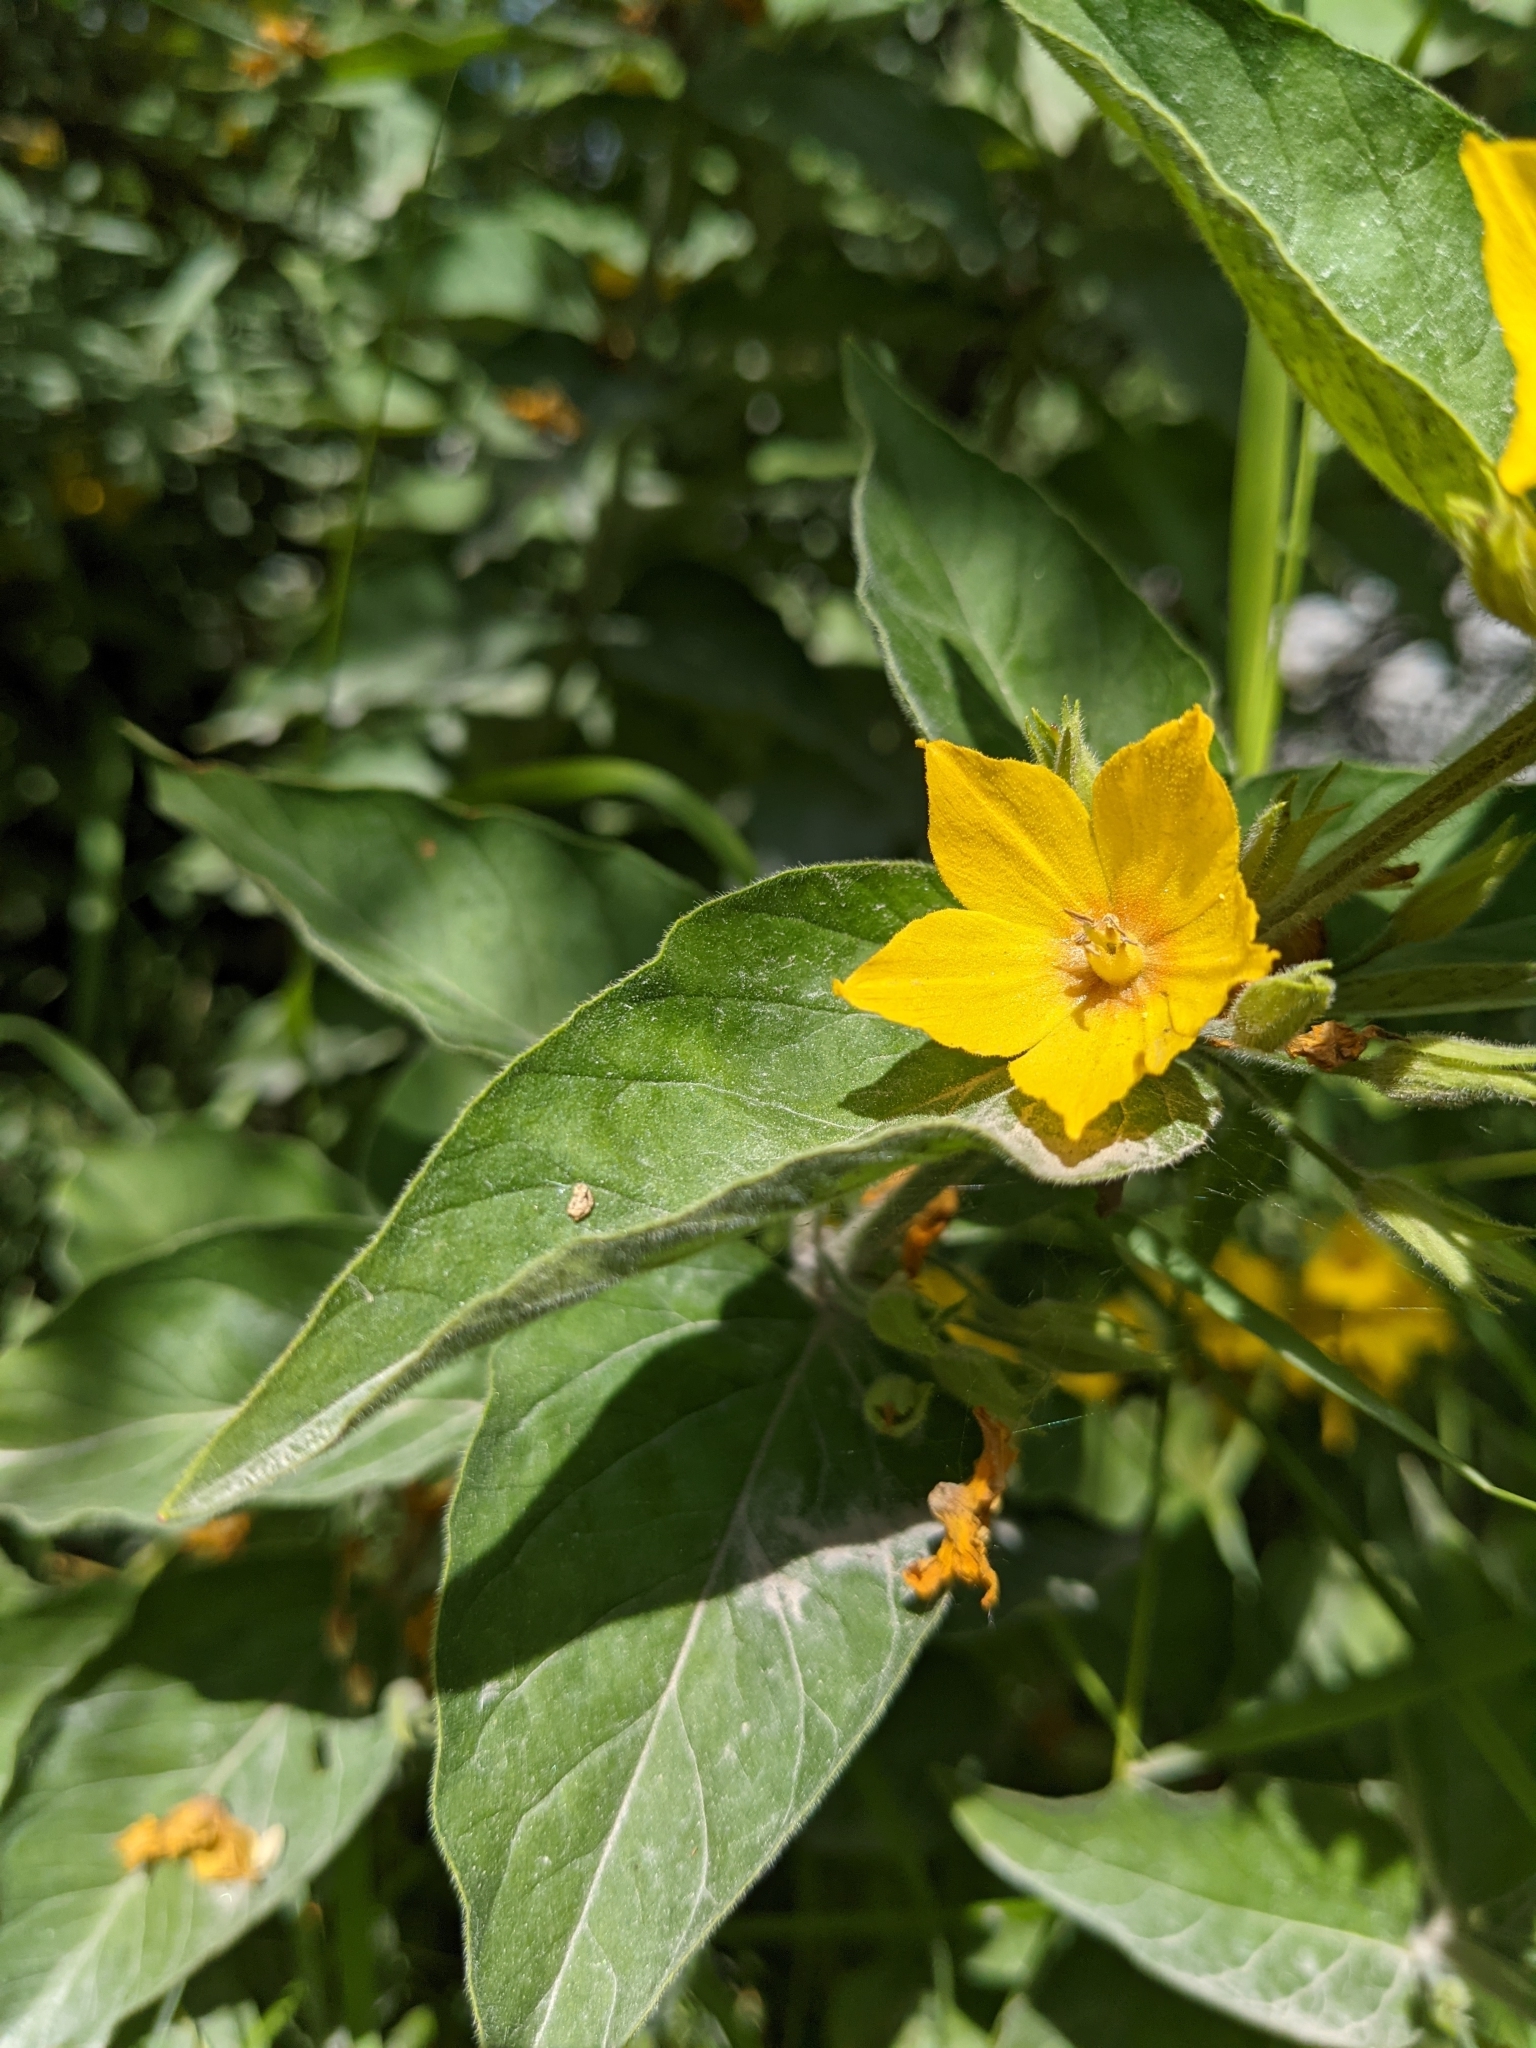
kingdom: Plantae
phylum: Tracheophyta
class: Magnoliopsida
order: Ericales
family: Primulaceae
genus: Lysimachia
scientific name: Lysimachia punctata
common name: Dotted loosestrife
